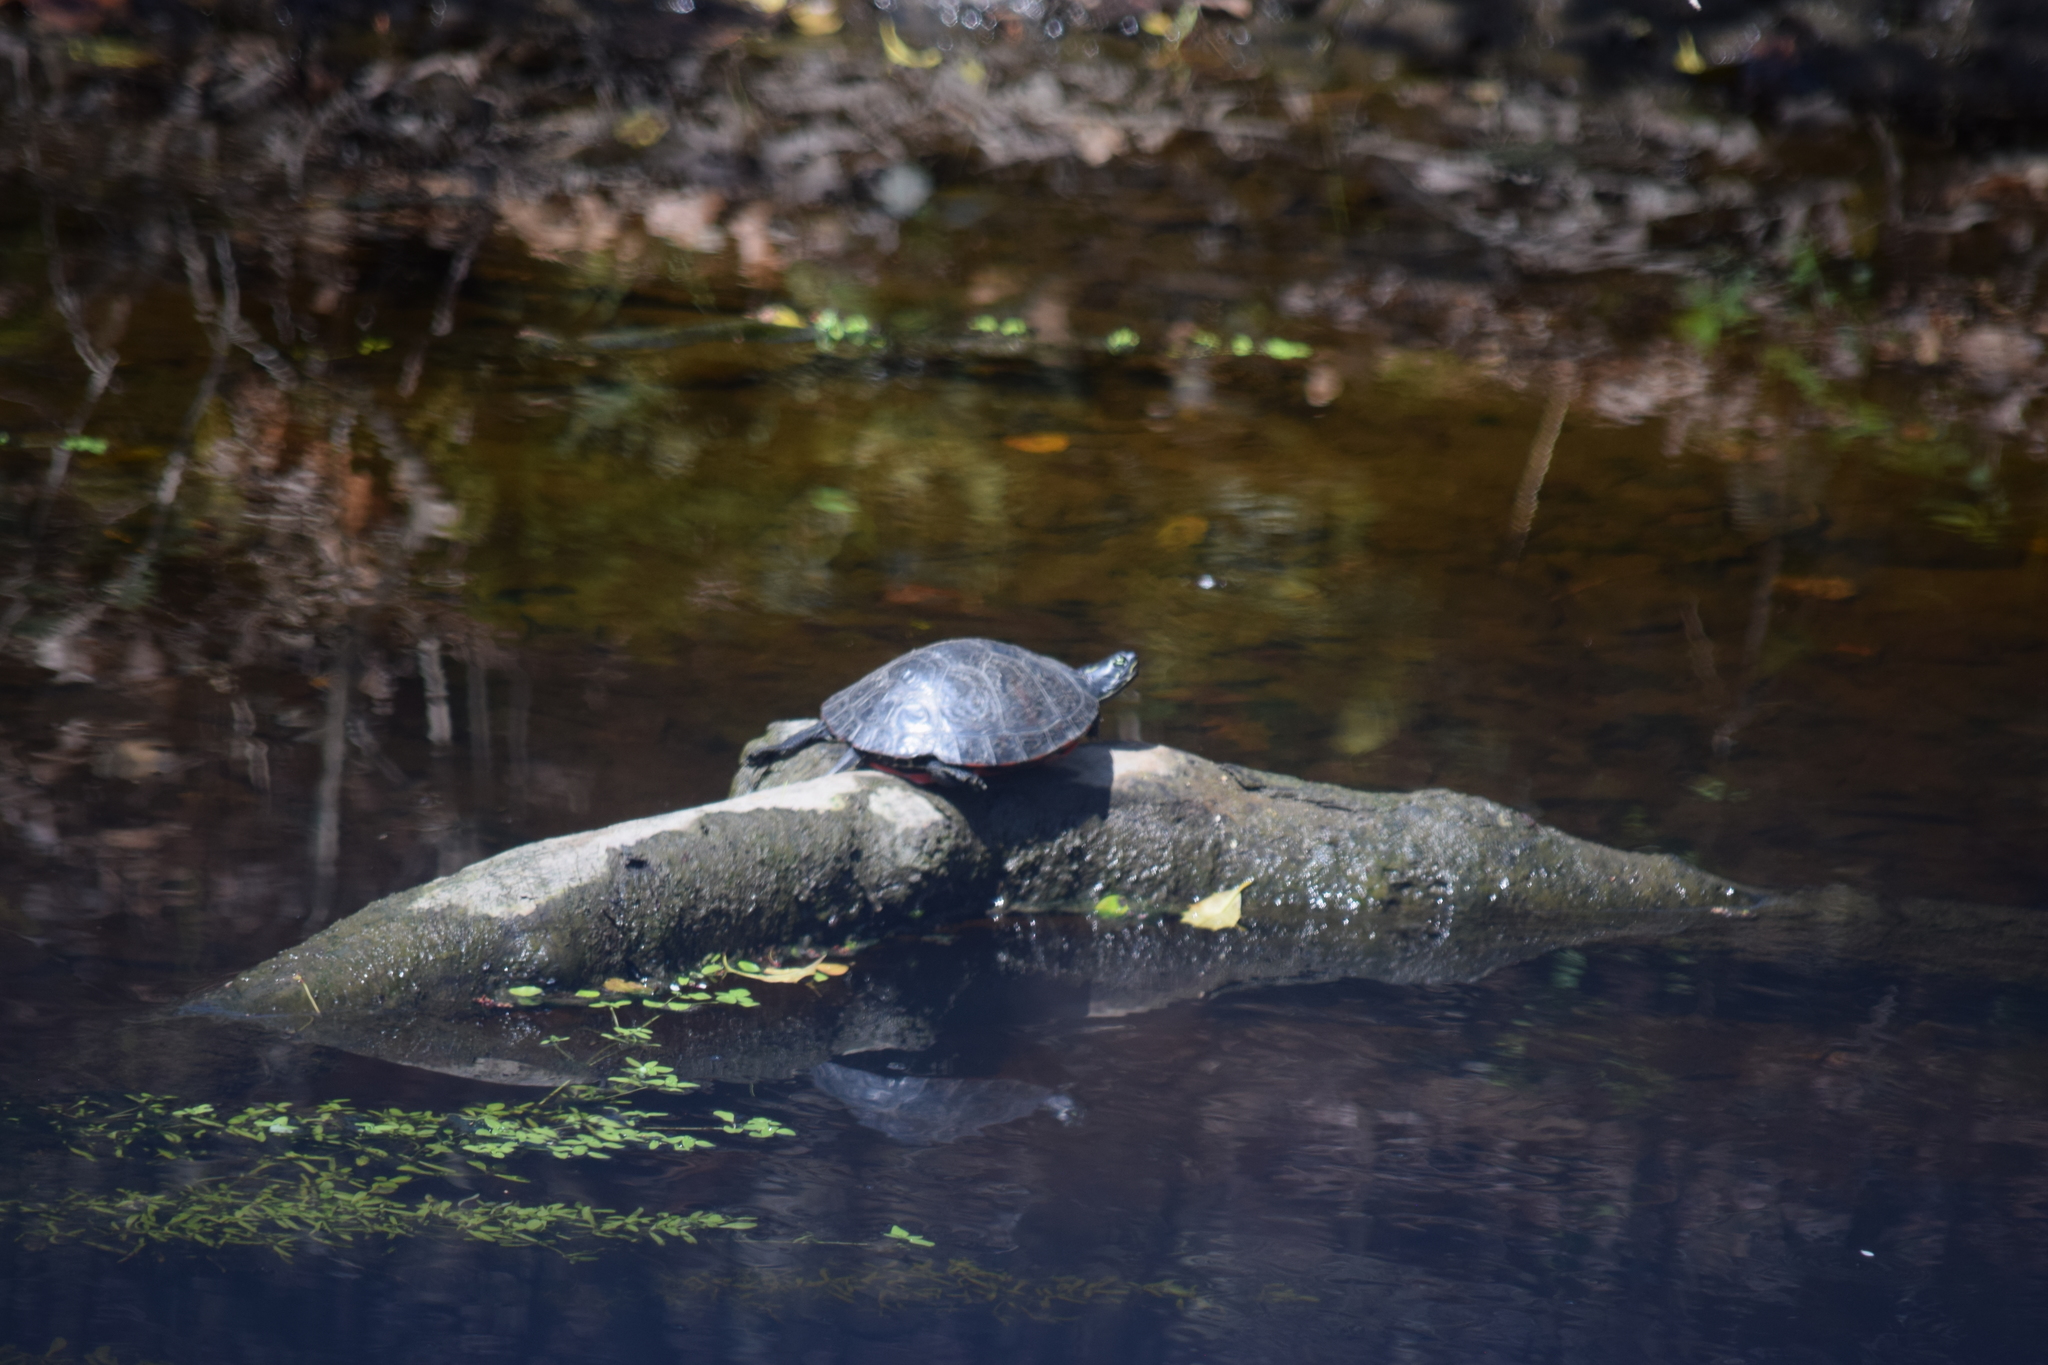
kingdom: Animalia
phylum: Chordata
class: Testudines
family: Emydidae
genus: Pseudemys
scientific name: Pseudemys rubriventris
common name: American red-bellied turtle
